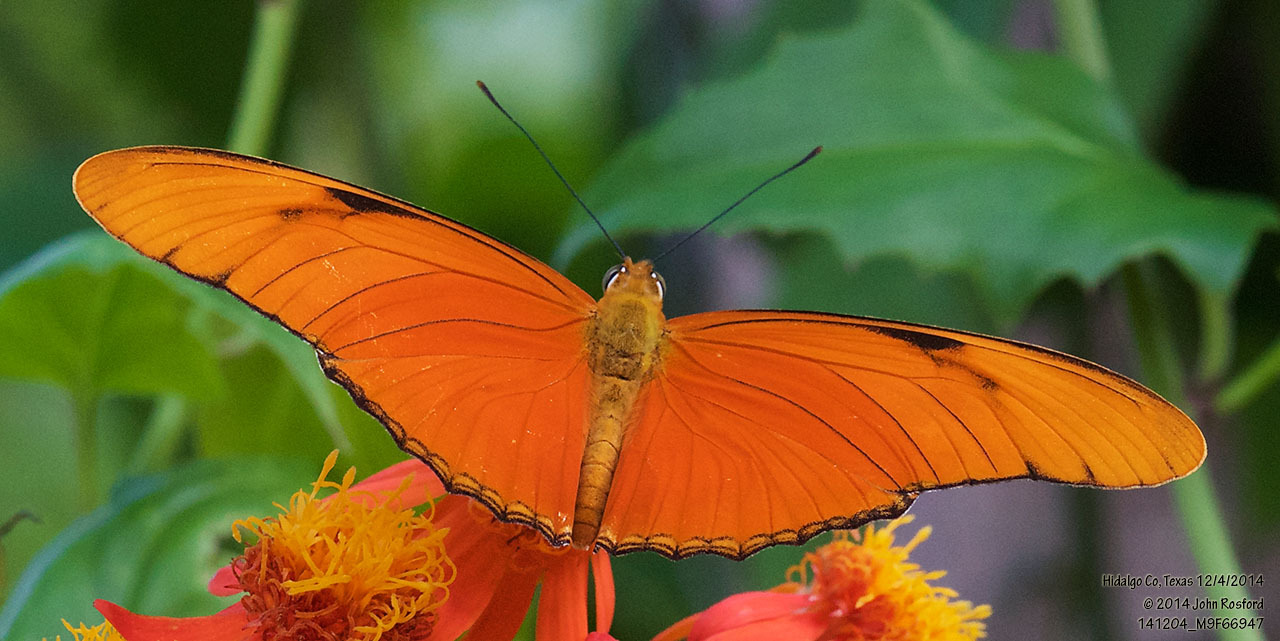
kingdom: Animalia
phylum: Arthropoda
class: Insecta
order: Lepidoptera
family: Nymphalidae
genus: Dryas
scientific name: Dryas iulia
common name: Flambeau
